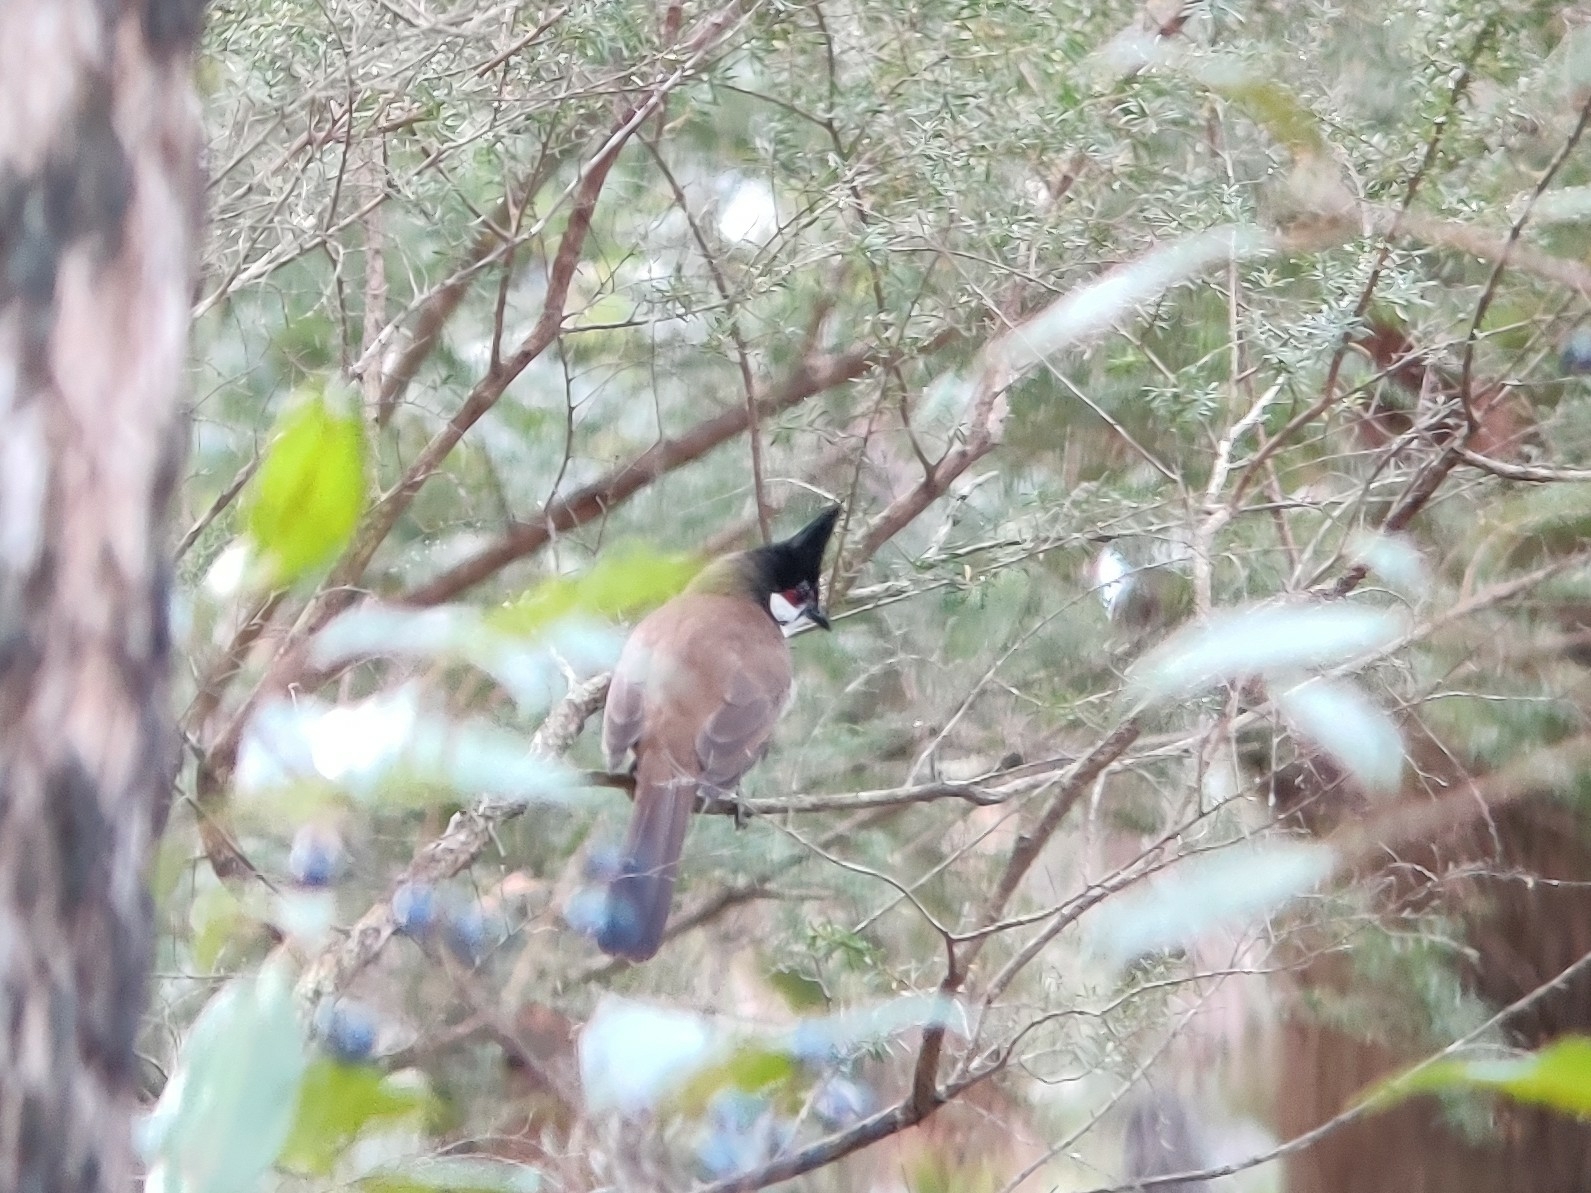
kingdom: Animalia
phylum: Chordata
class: Aves
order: Passeriformes
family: Pycnonotidae
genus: Pycnonotus
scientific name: Pycnonotus jocosus
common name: Red-whiskered bulbul
